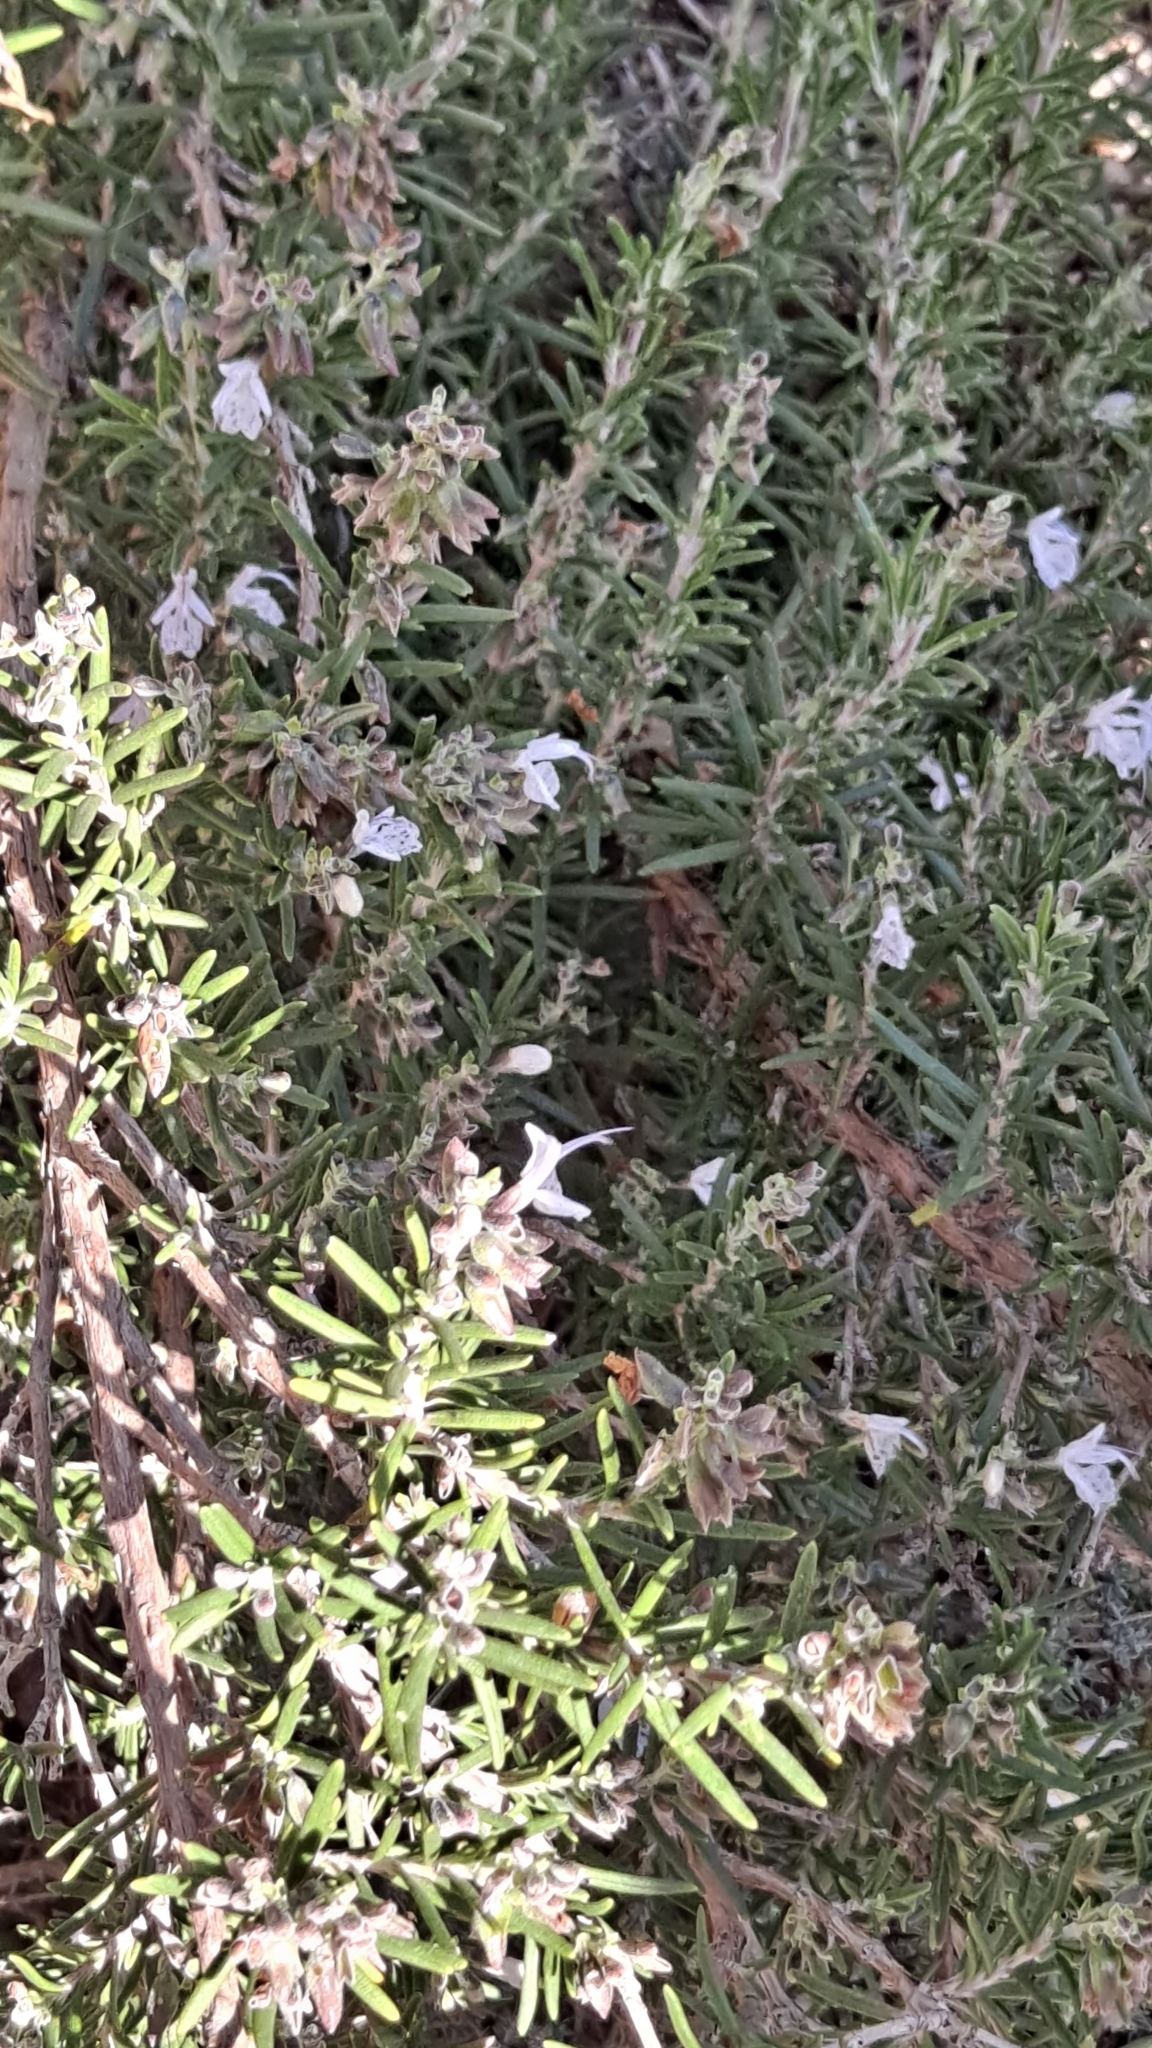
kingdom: Plantae
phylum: Tracheophyta
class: Magnoliopsida
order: Lamiales
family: Lamiaceae
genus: Salvia
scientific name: Salvia rosmarinus
